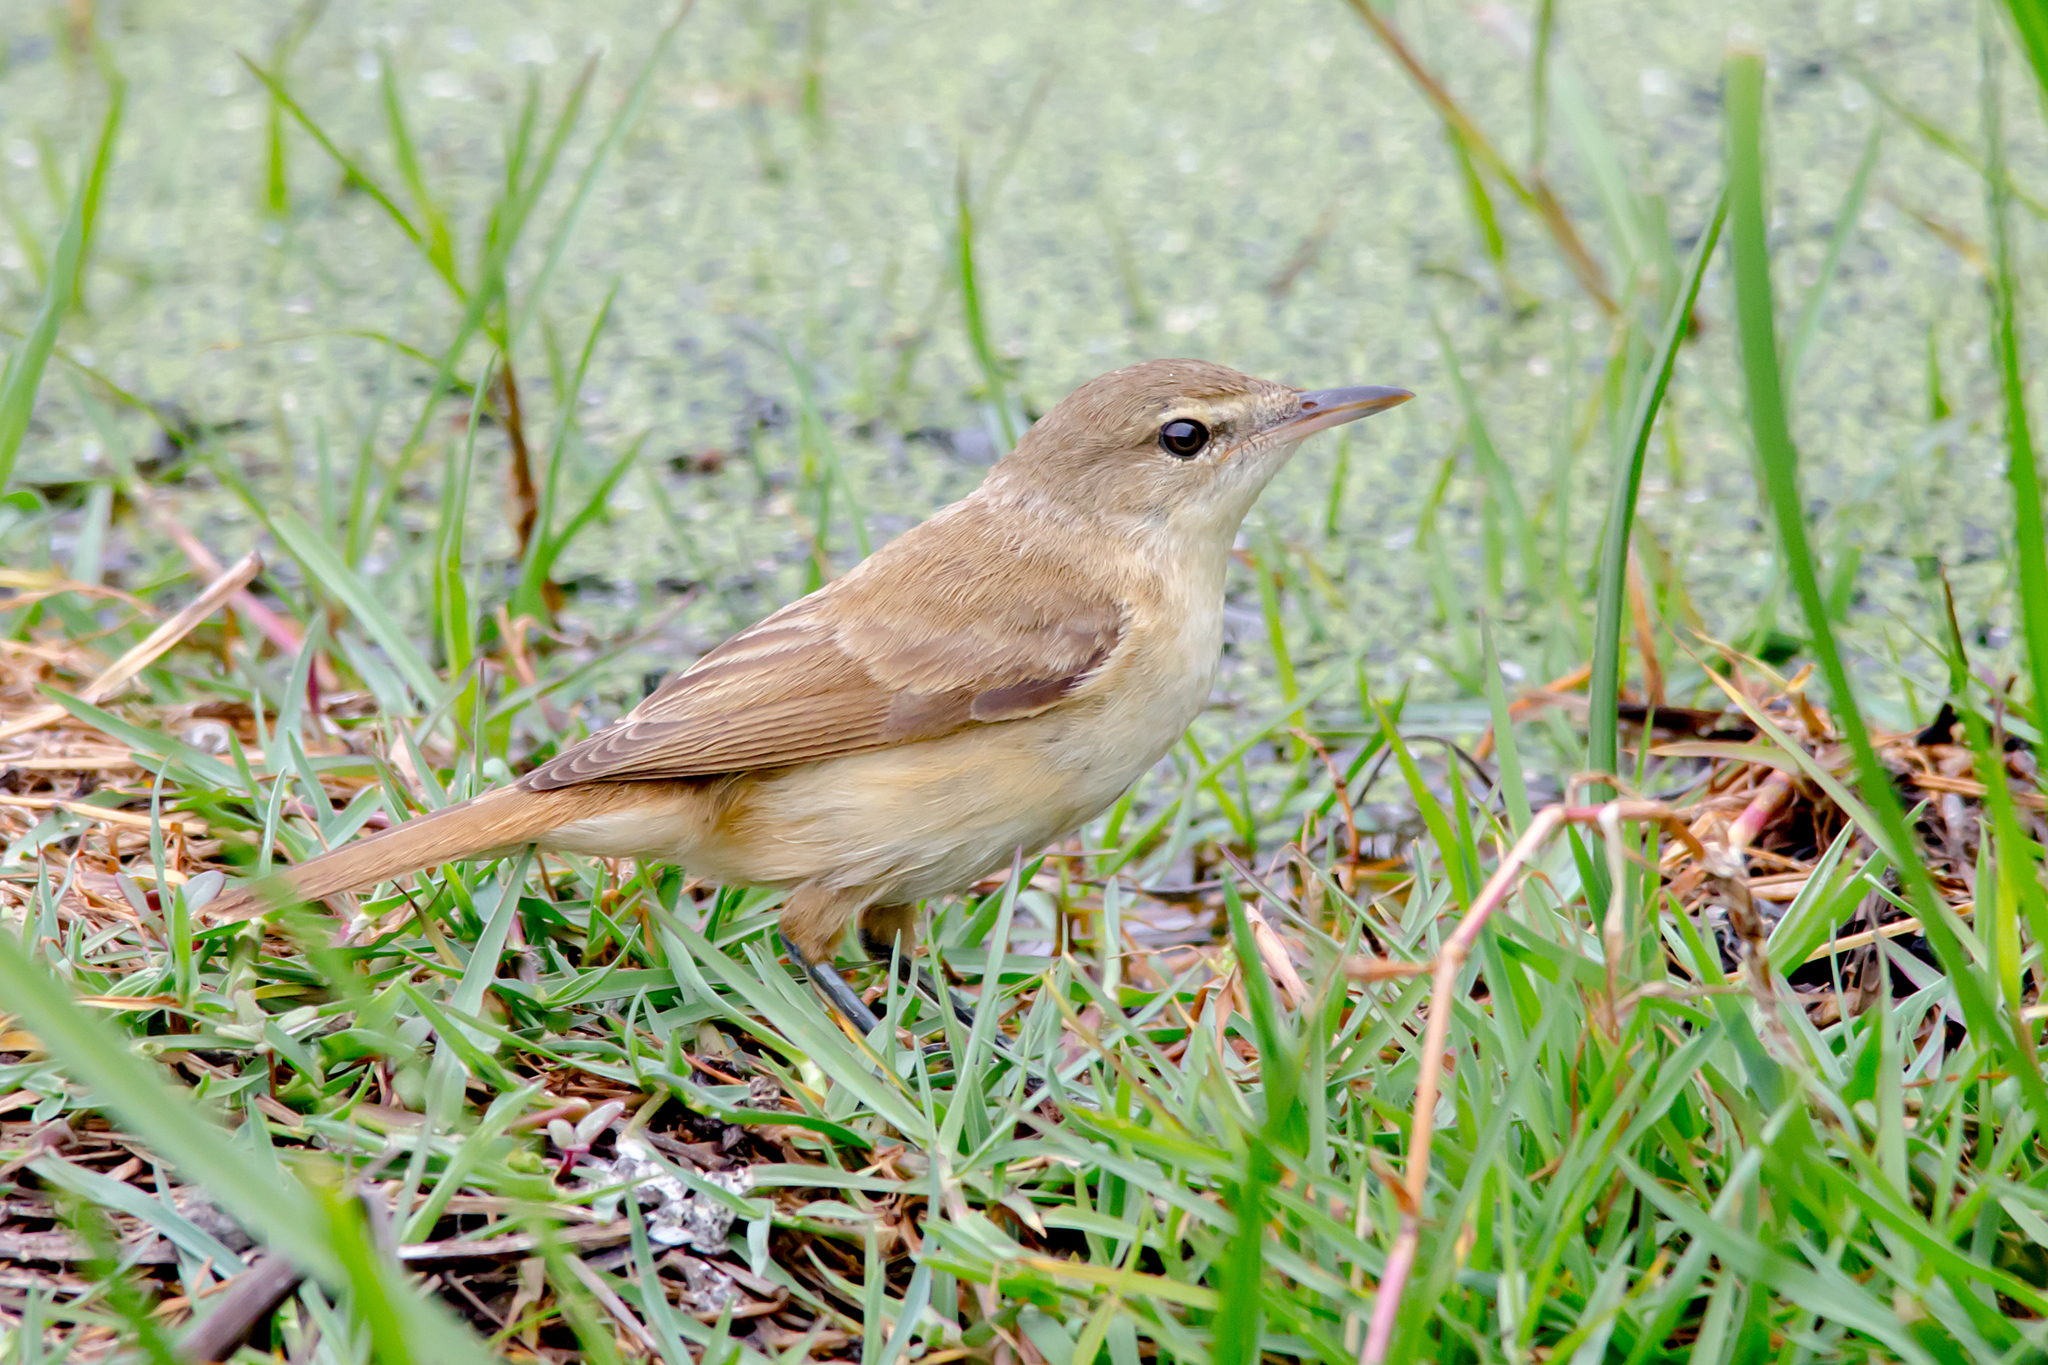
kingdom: Animalia
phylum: Chordata
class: Aves
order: Passeriformes
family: Acrocephalidae
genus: Acrocephalus
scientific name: Acrocephalus australis
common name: Australian reed warbler
